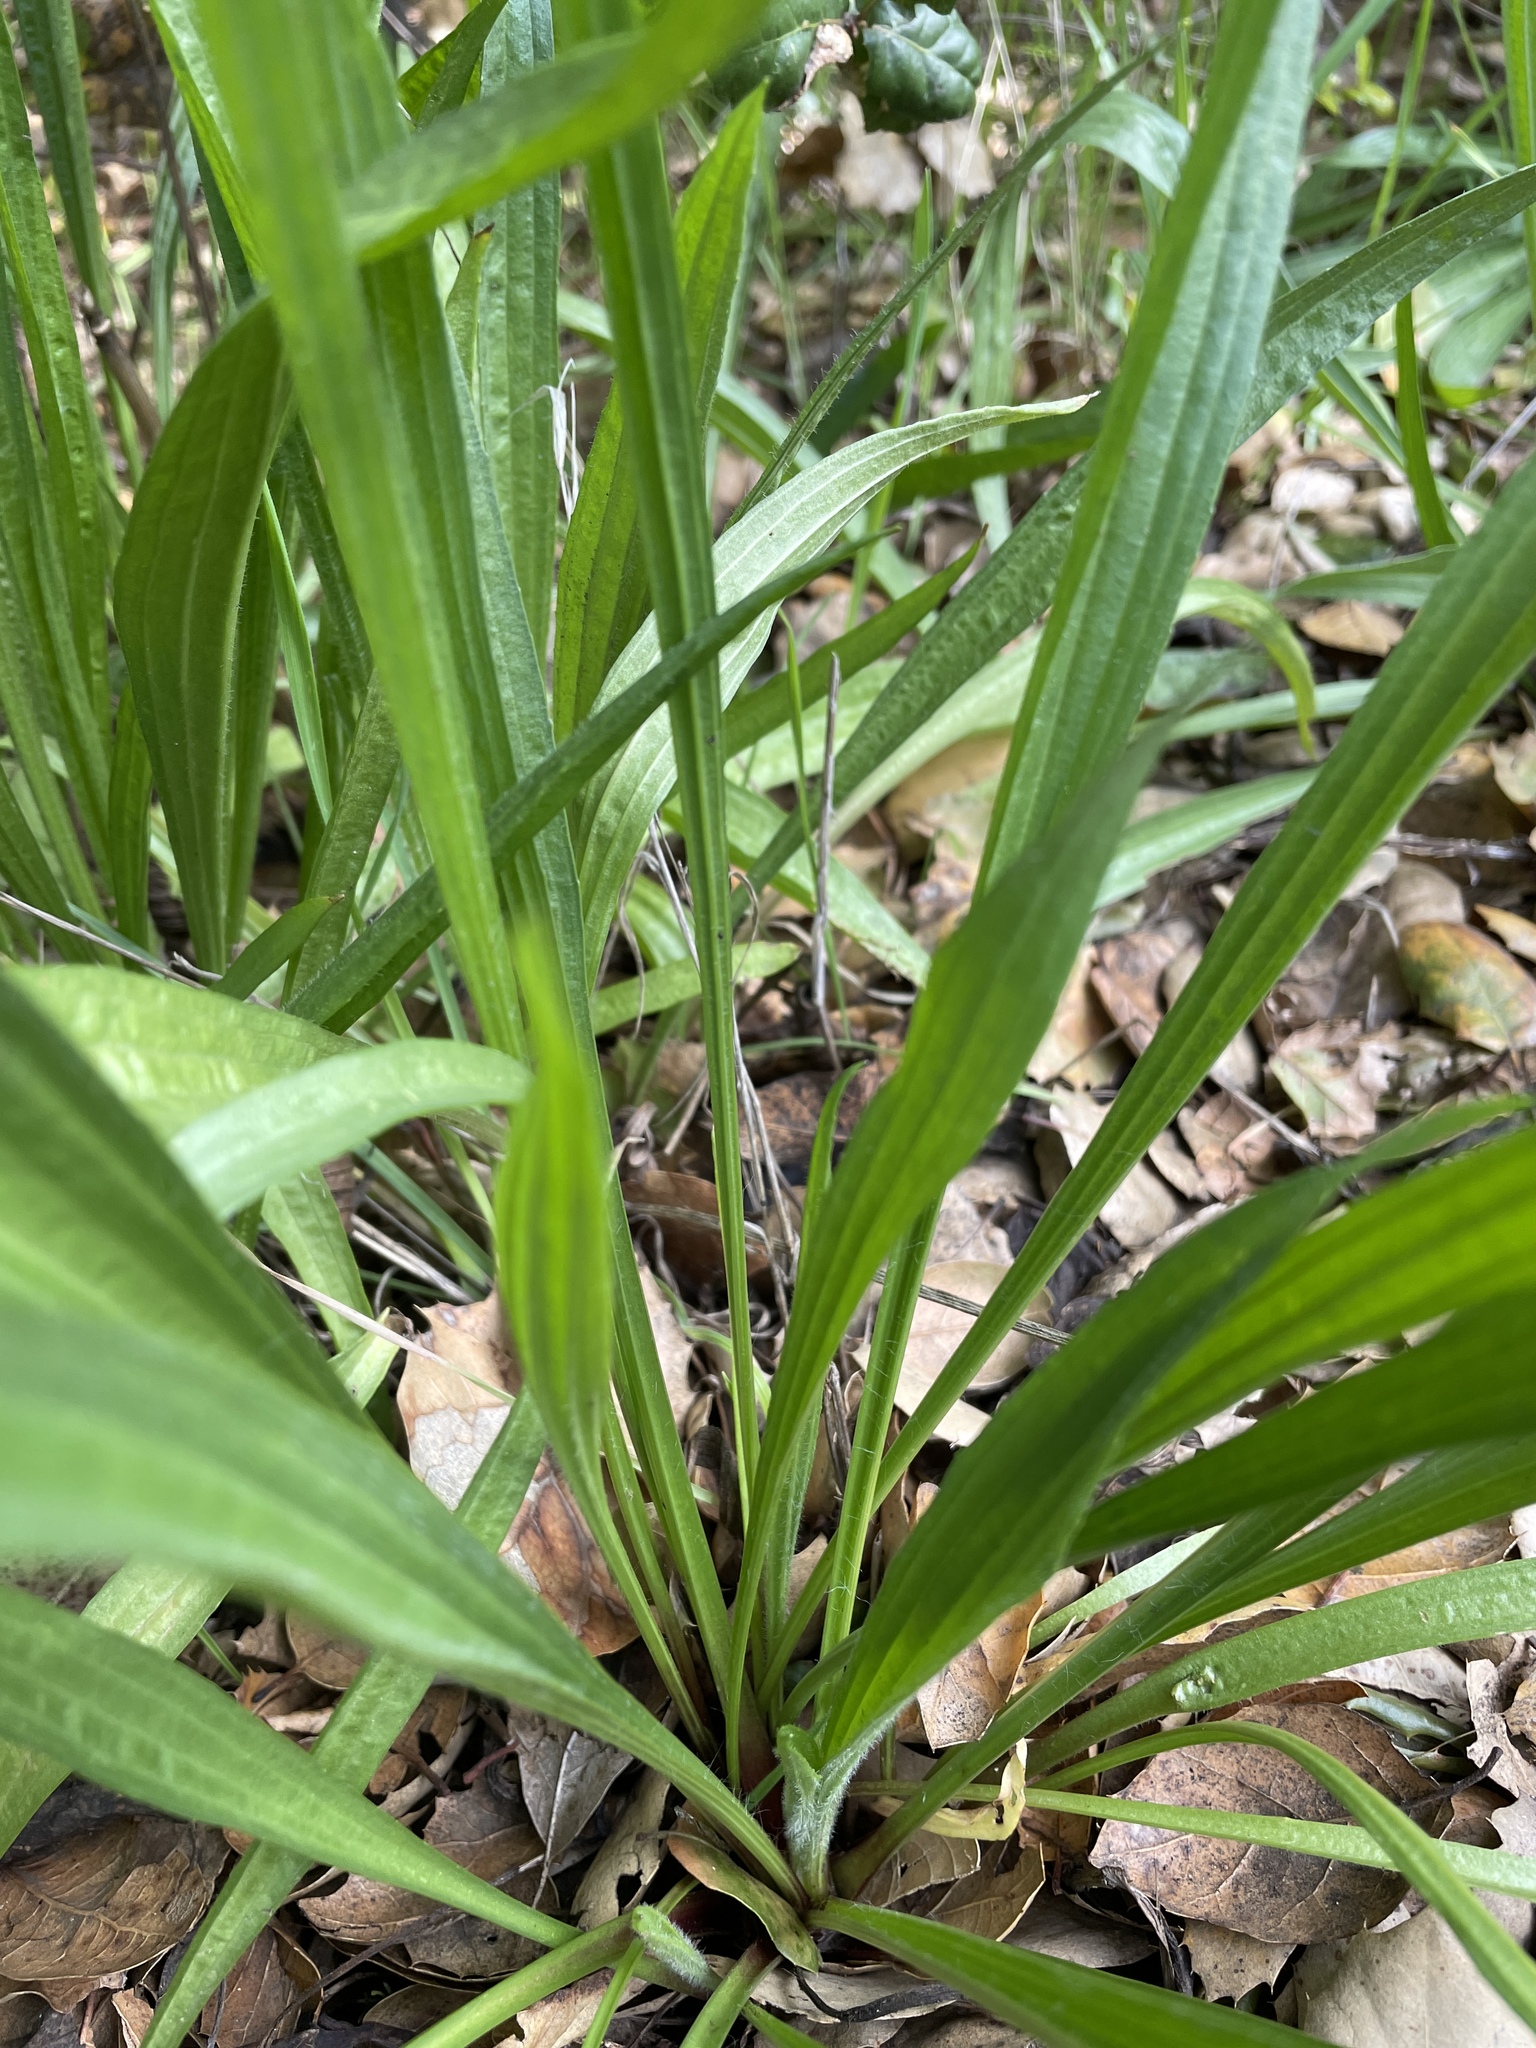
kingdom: Plantae
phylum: Tracheophyta
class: Magnoliopsida
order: Lamiales
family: Plantaginaceae
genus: Plantago
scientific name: Plantago lanceolata
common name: Ribwort plantain
